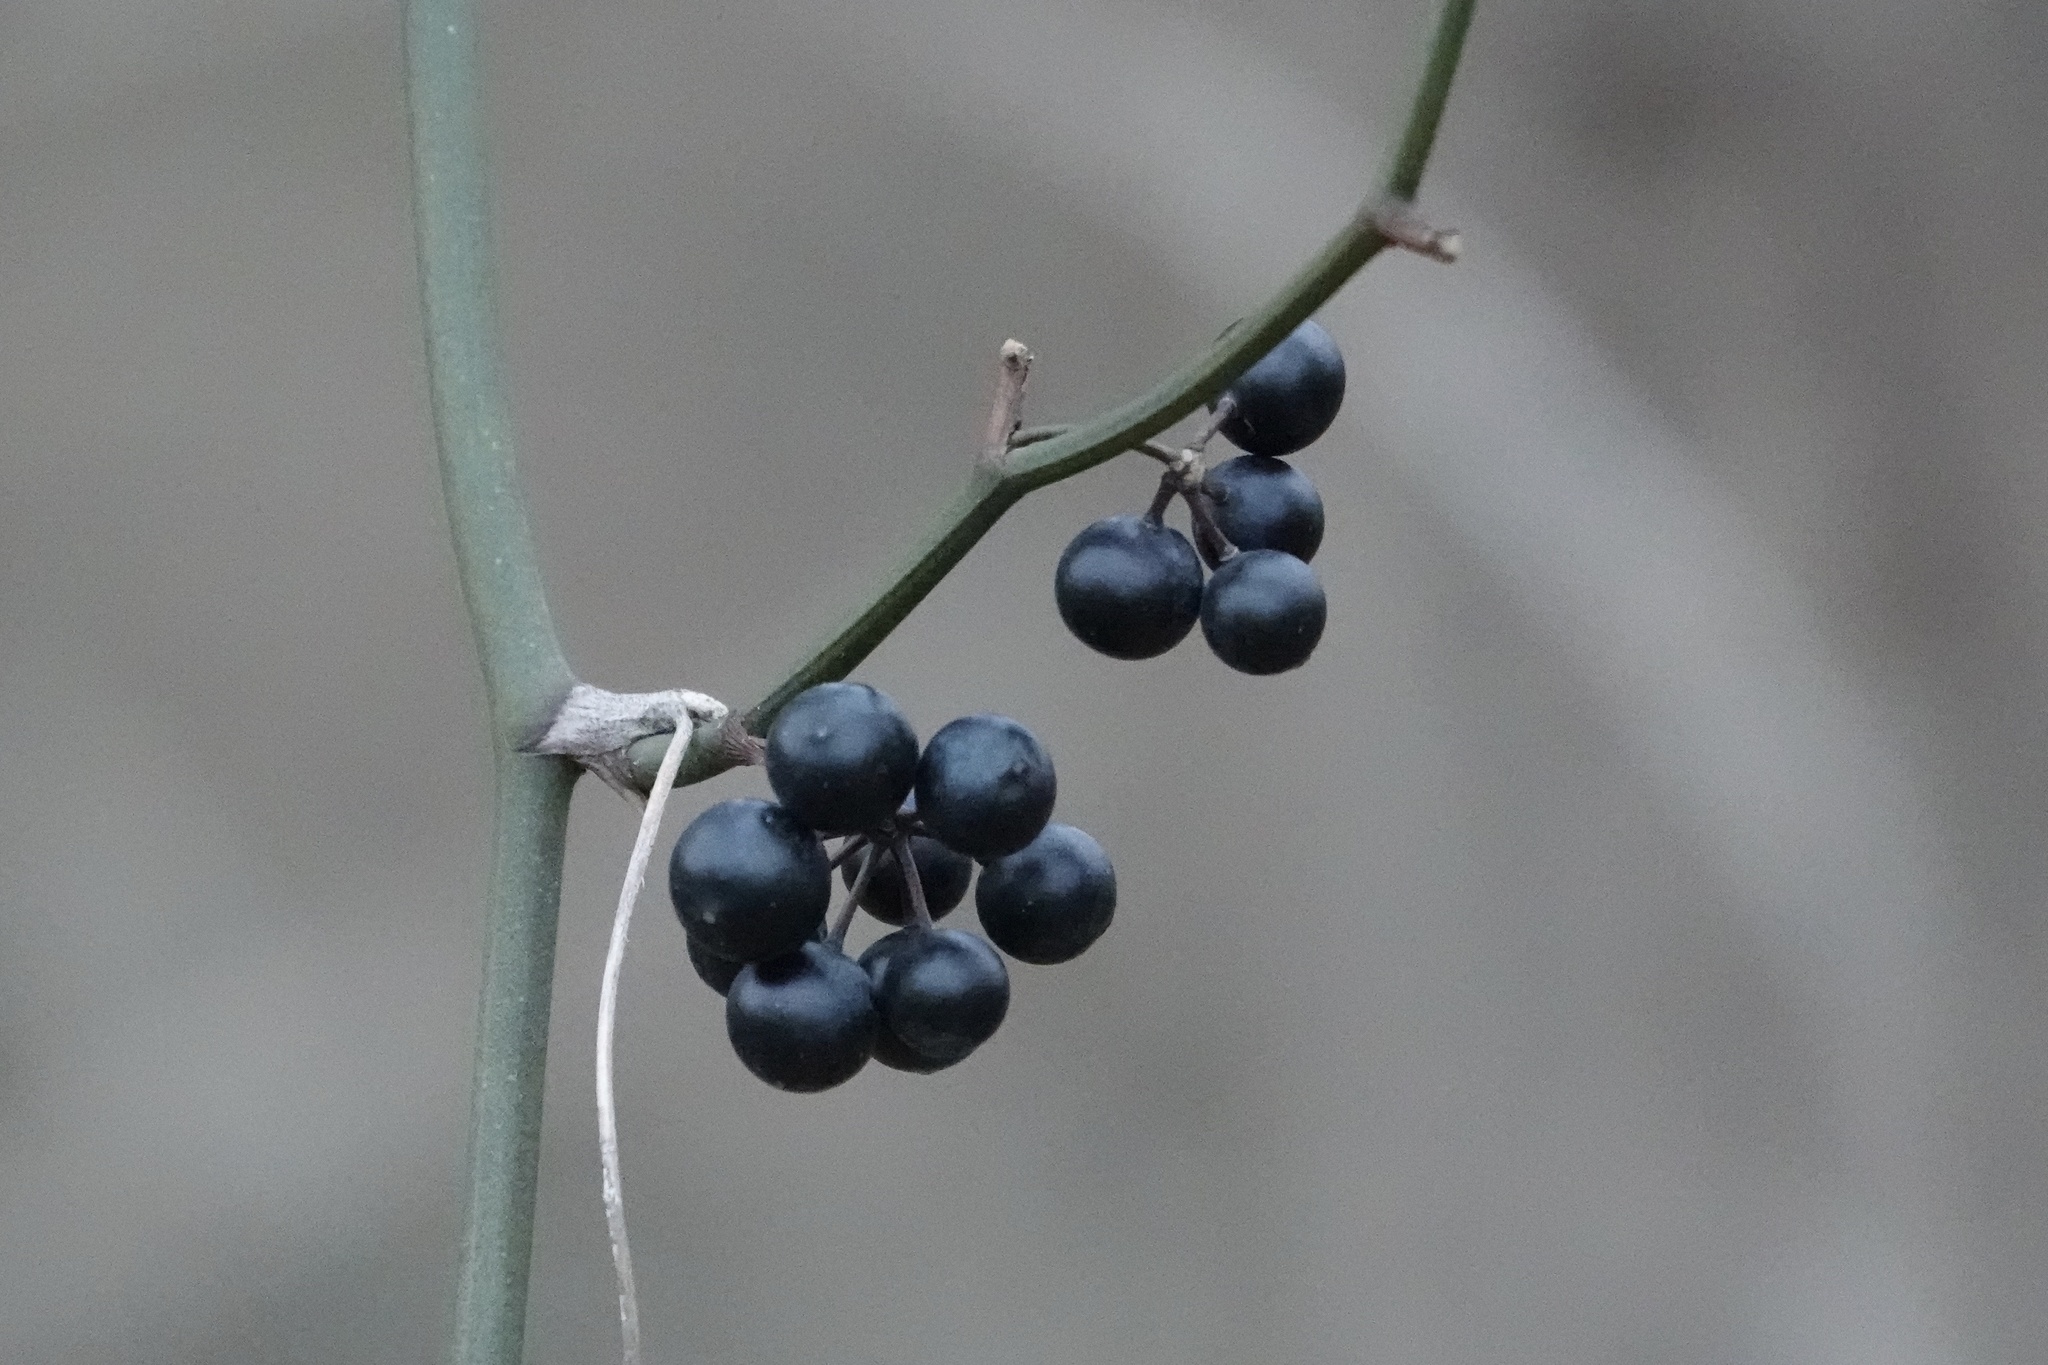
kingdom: Plantae
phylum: Tracheophyta
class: Liliopsida
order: Liliales
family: Smilacaceae
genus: Smilax
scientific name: Smilax rotundifolia
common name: Bullbriar
